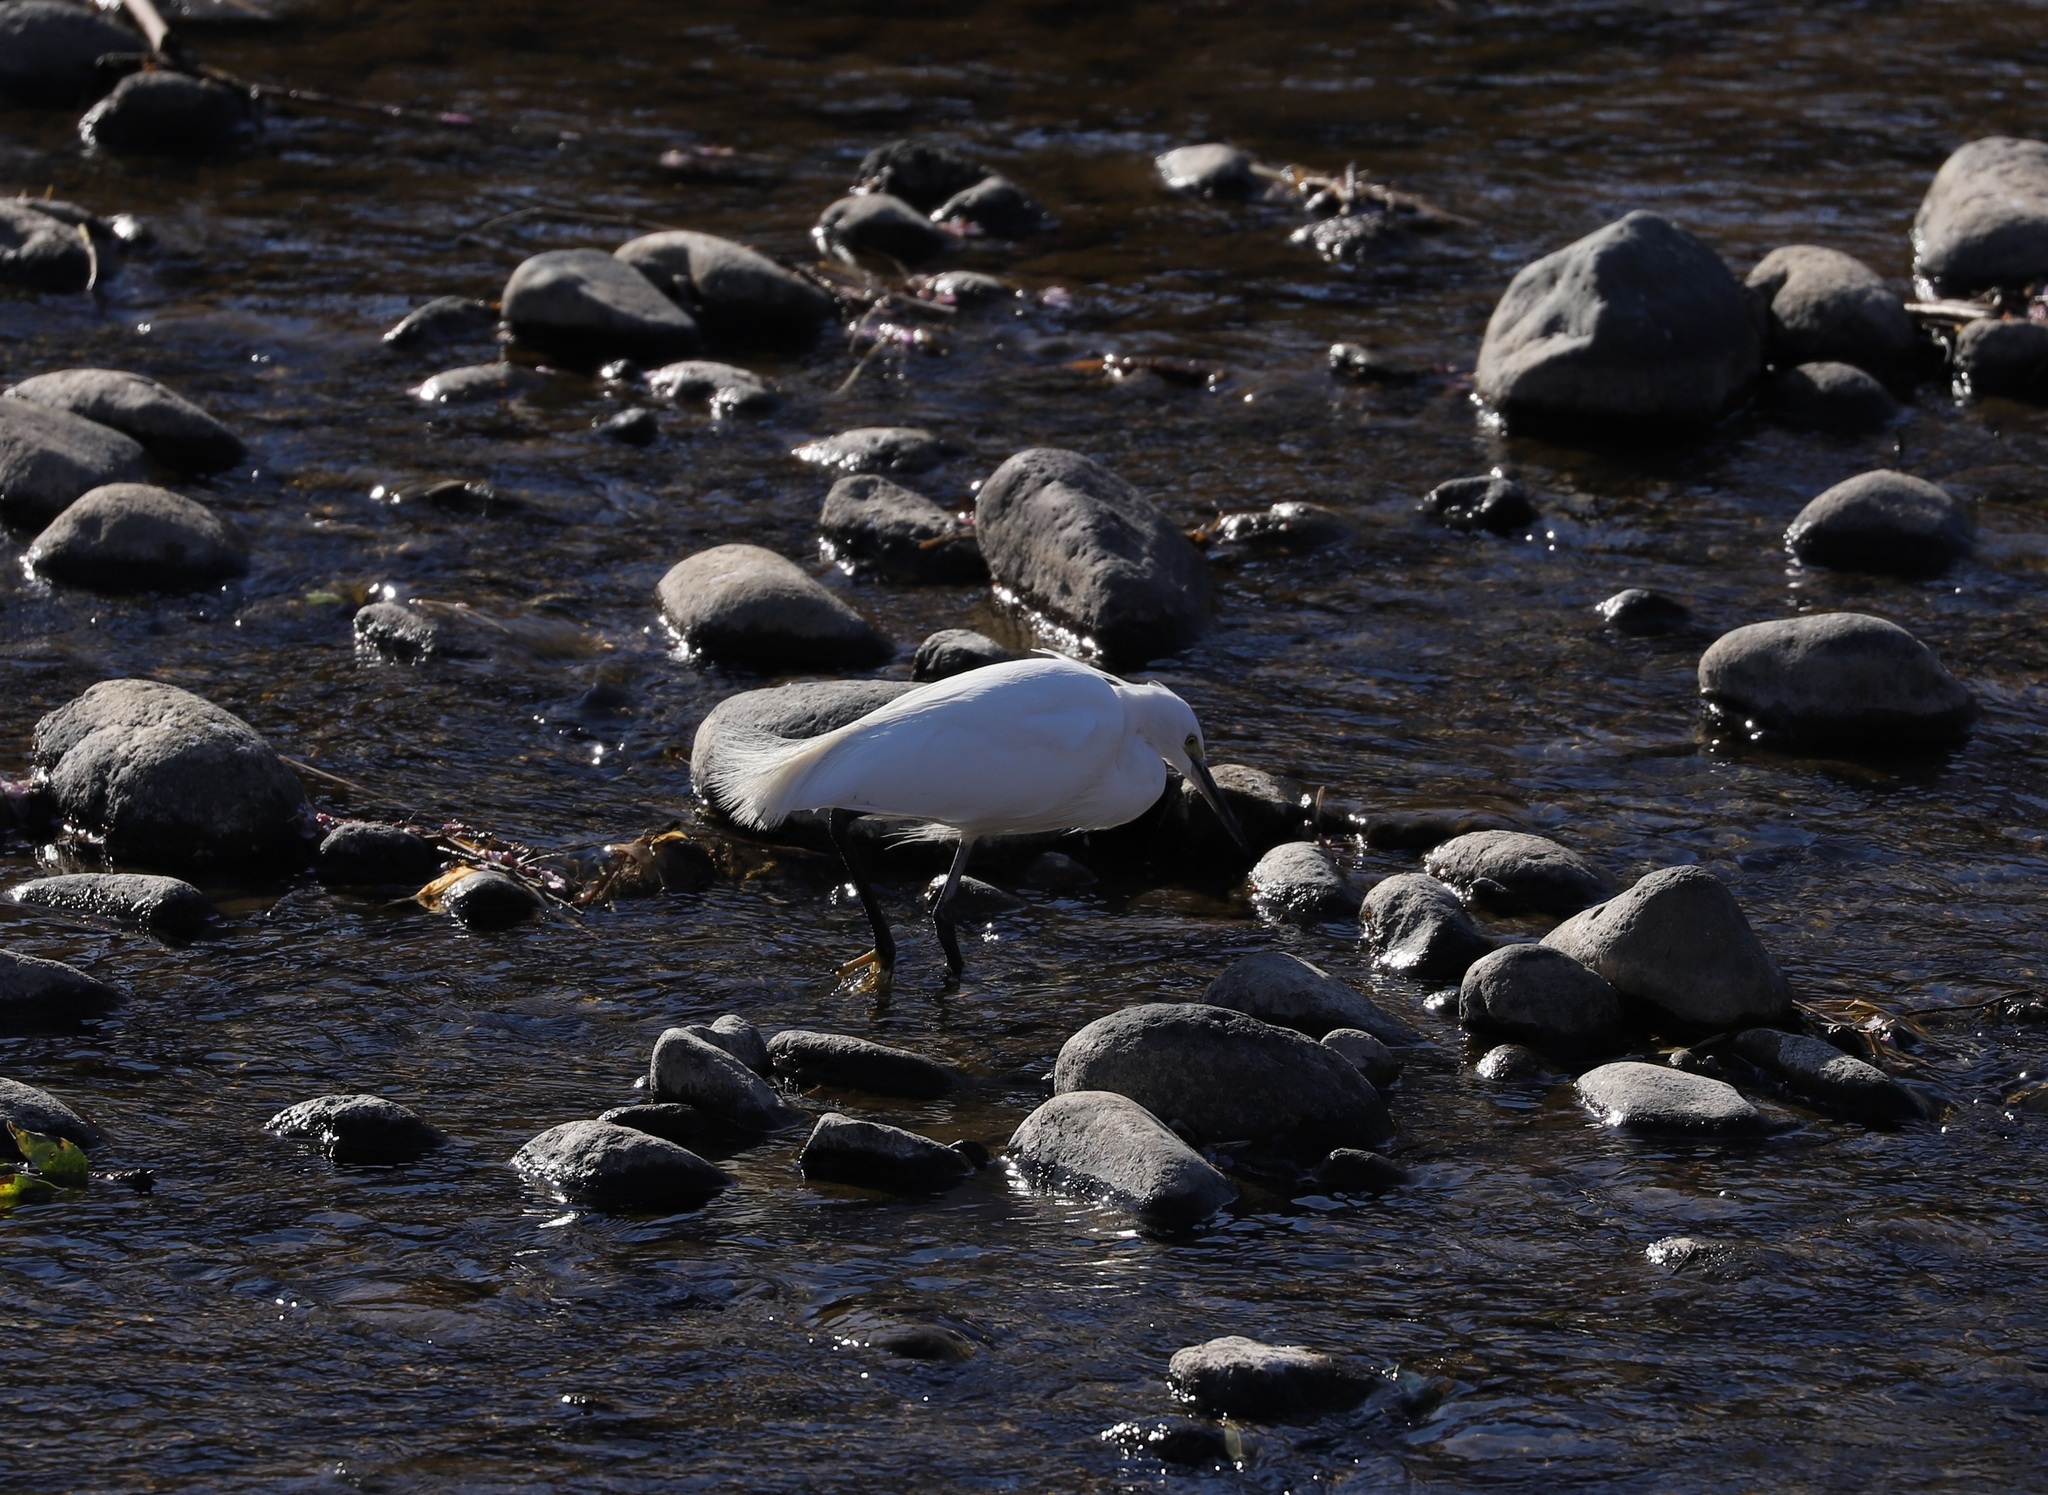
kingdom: Animalia
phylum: Chordata
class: Aves
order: Pelecaniformes
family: Ardeidae
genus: Egretta
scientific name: Egretta garzetta
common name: Little egret
